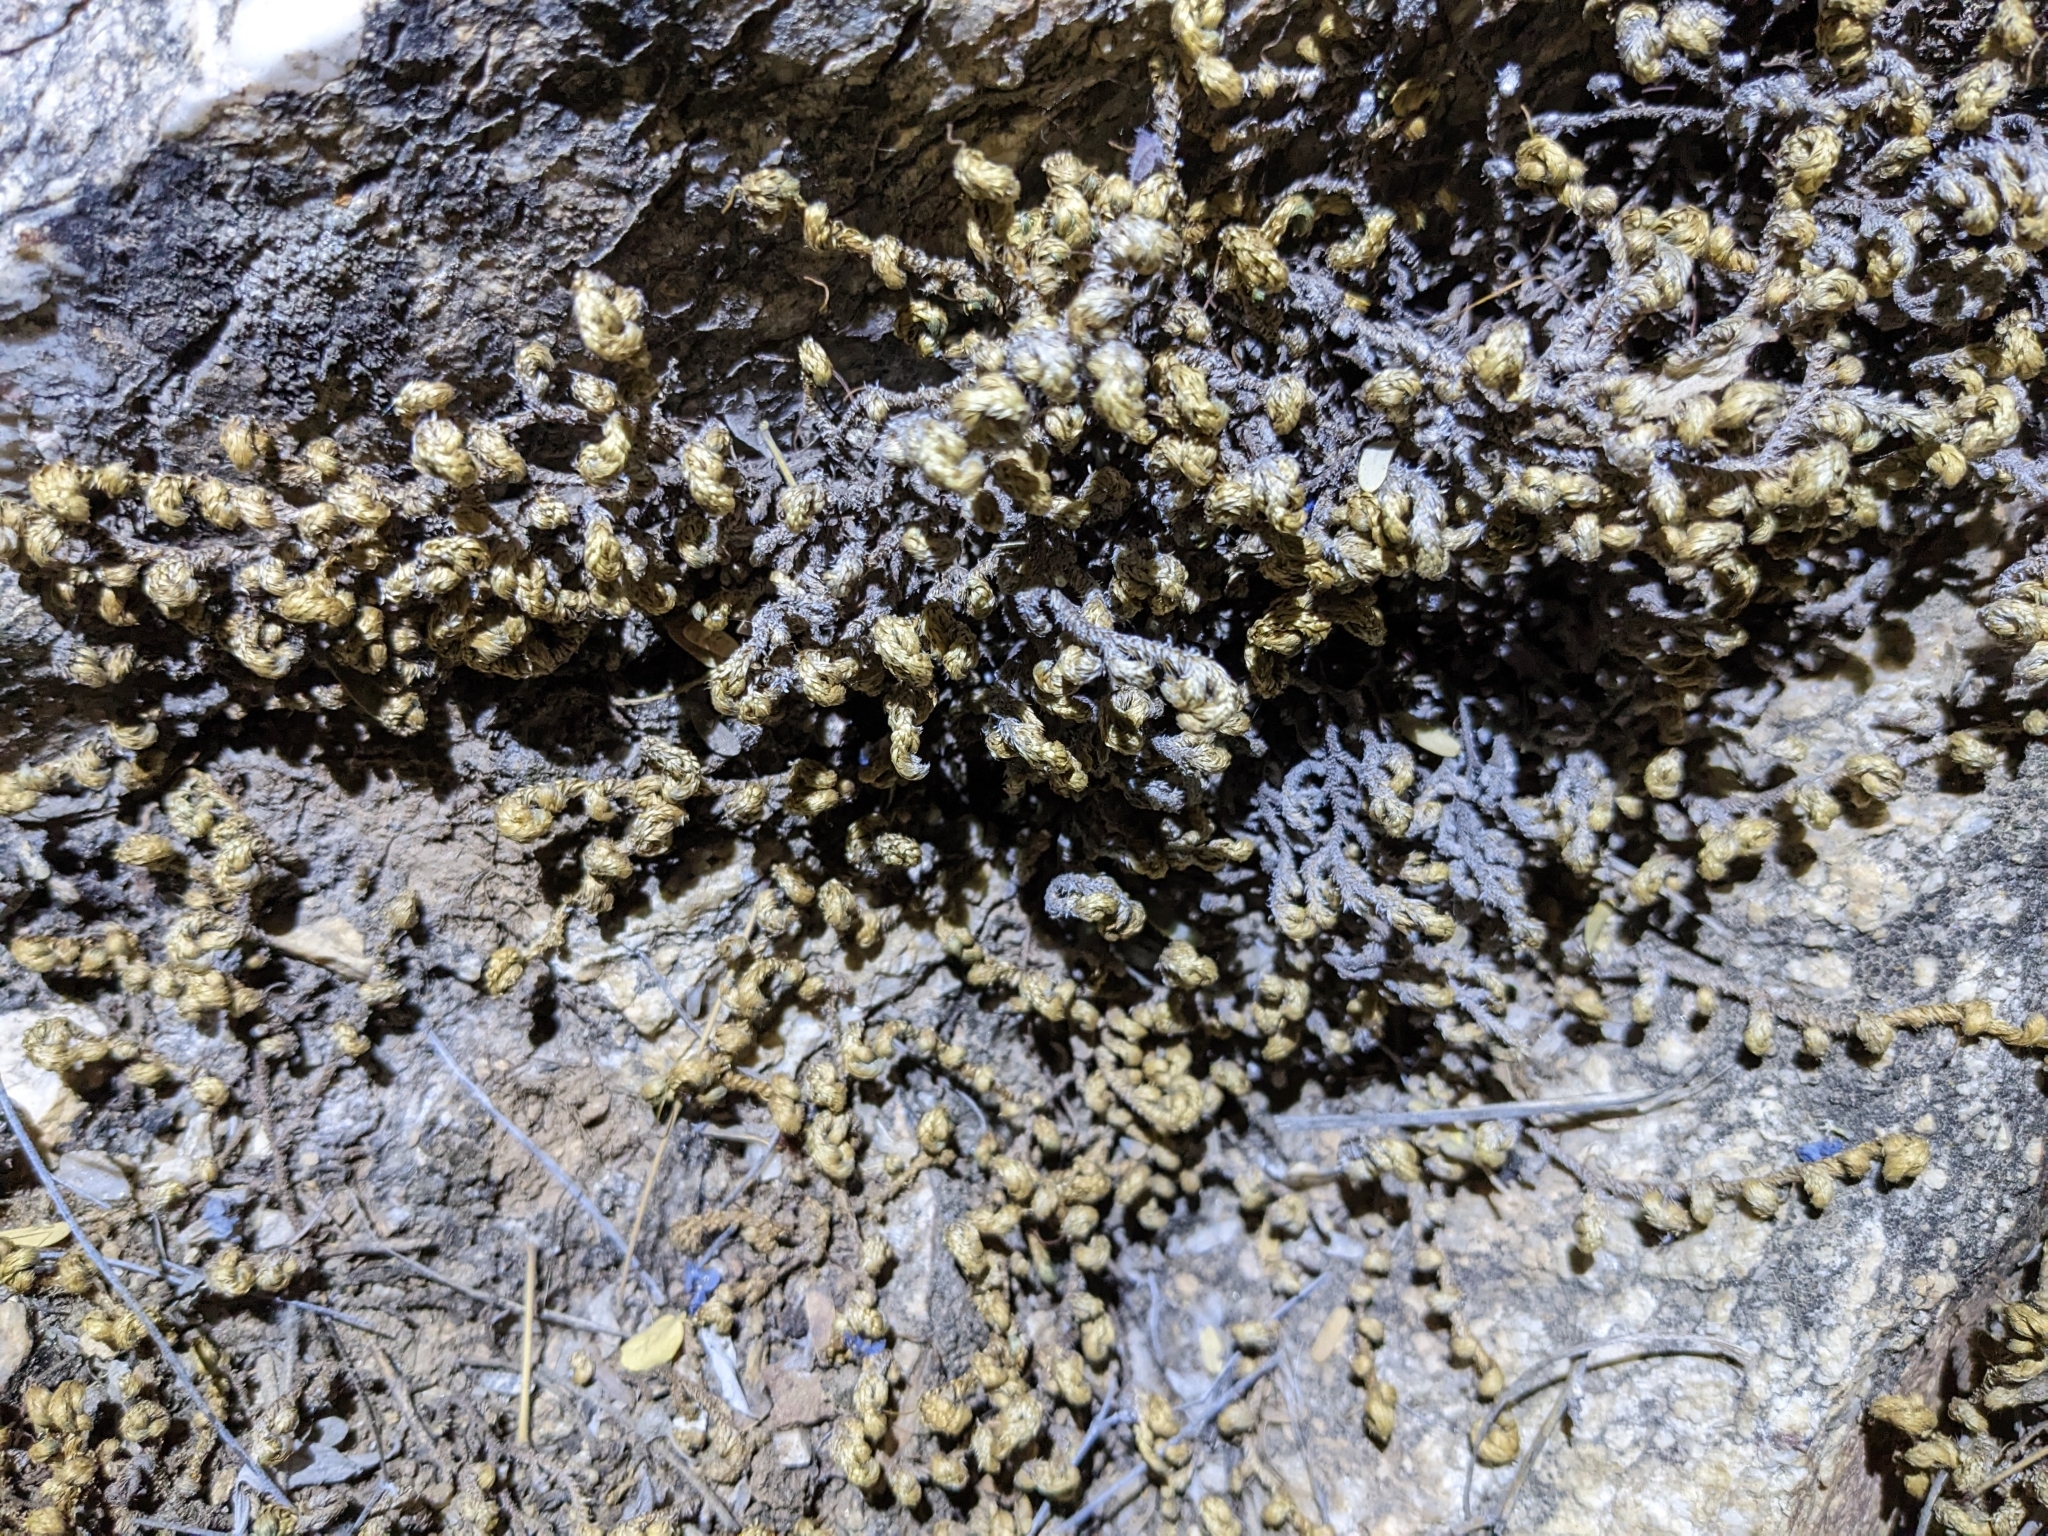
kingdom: Plantae
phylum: Tracheophyta
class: Lycopodiopsida
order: Selaginellales
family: Selaginellaceae
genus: Selaginella
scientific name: Selaginella arizonica
